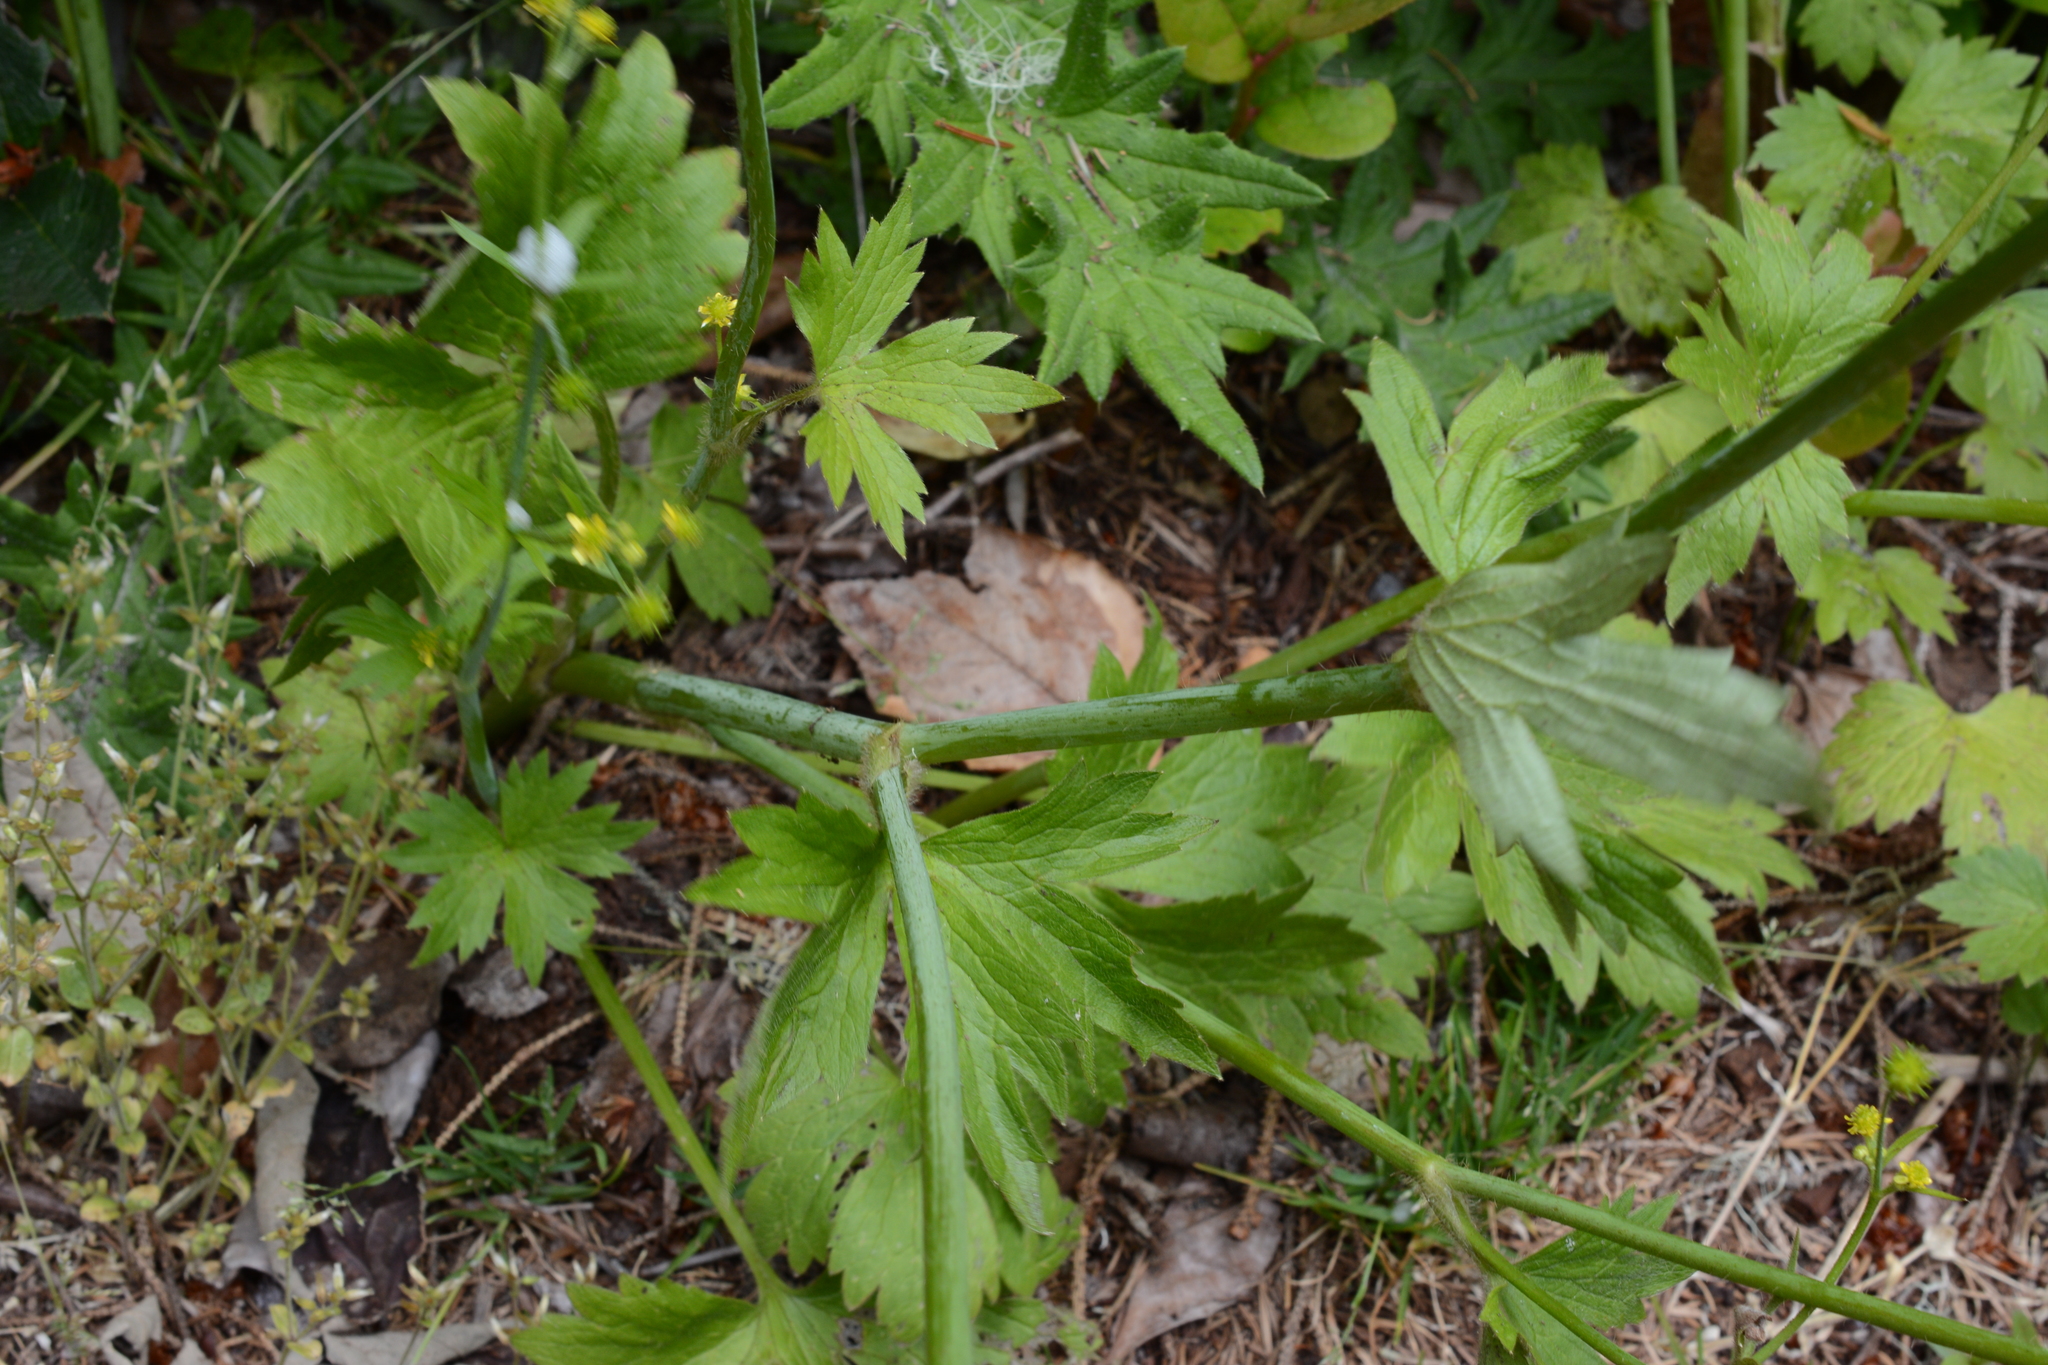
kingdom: Plantae
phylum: Tracheophyta
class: Magnoliopsida
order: Ranunculales
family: Ranunculaceae
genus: Ranunculus
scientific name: Ranunculus uncinatus
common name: Little buttercup
